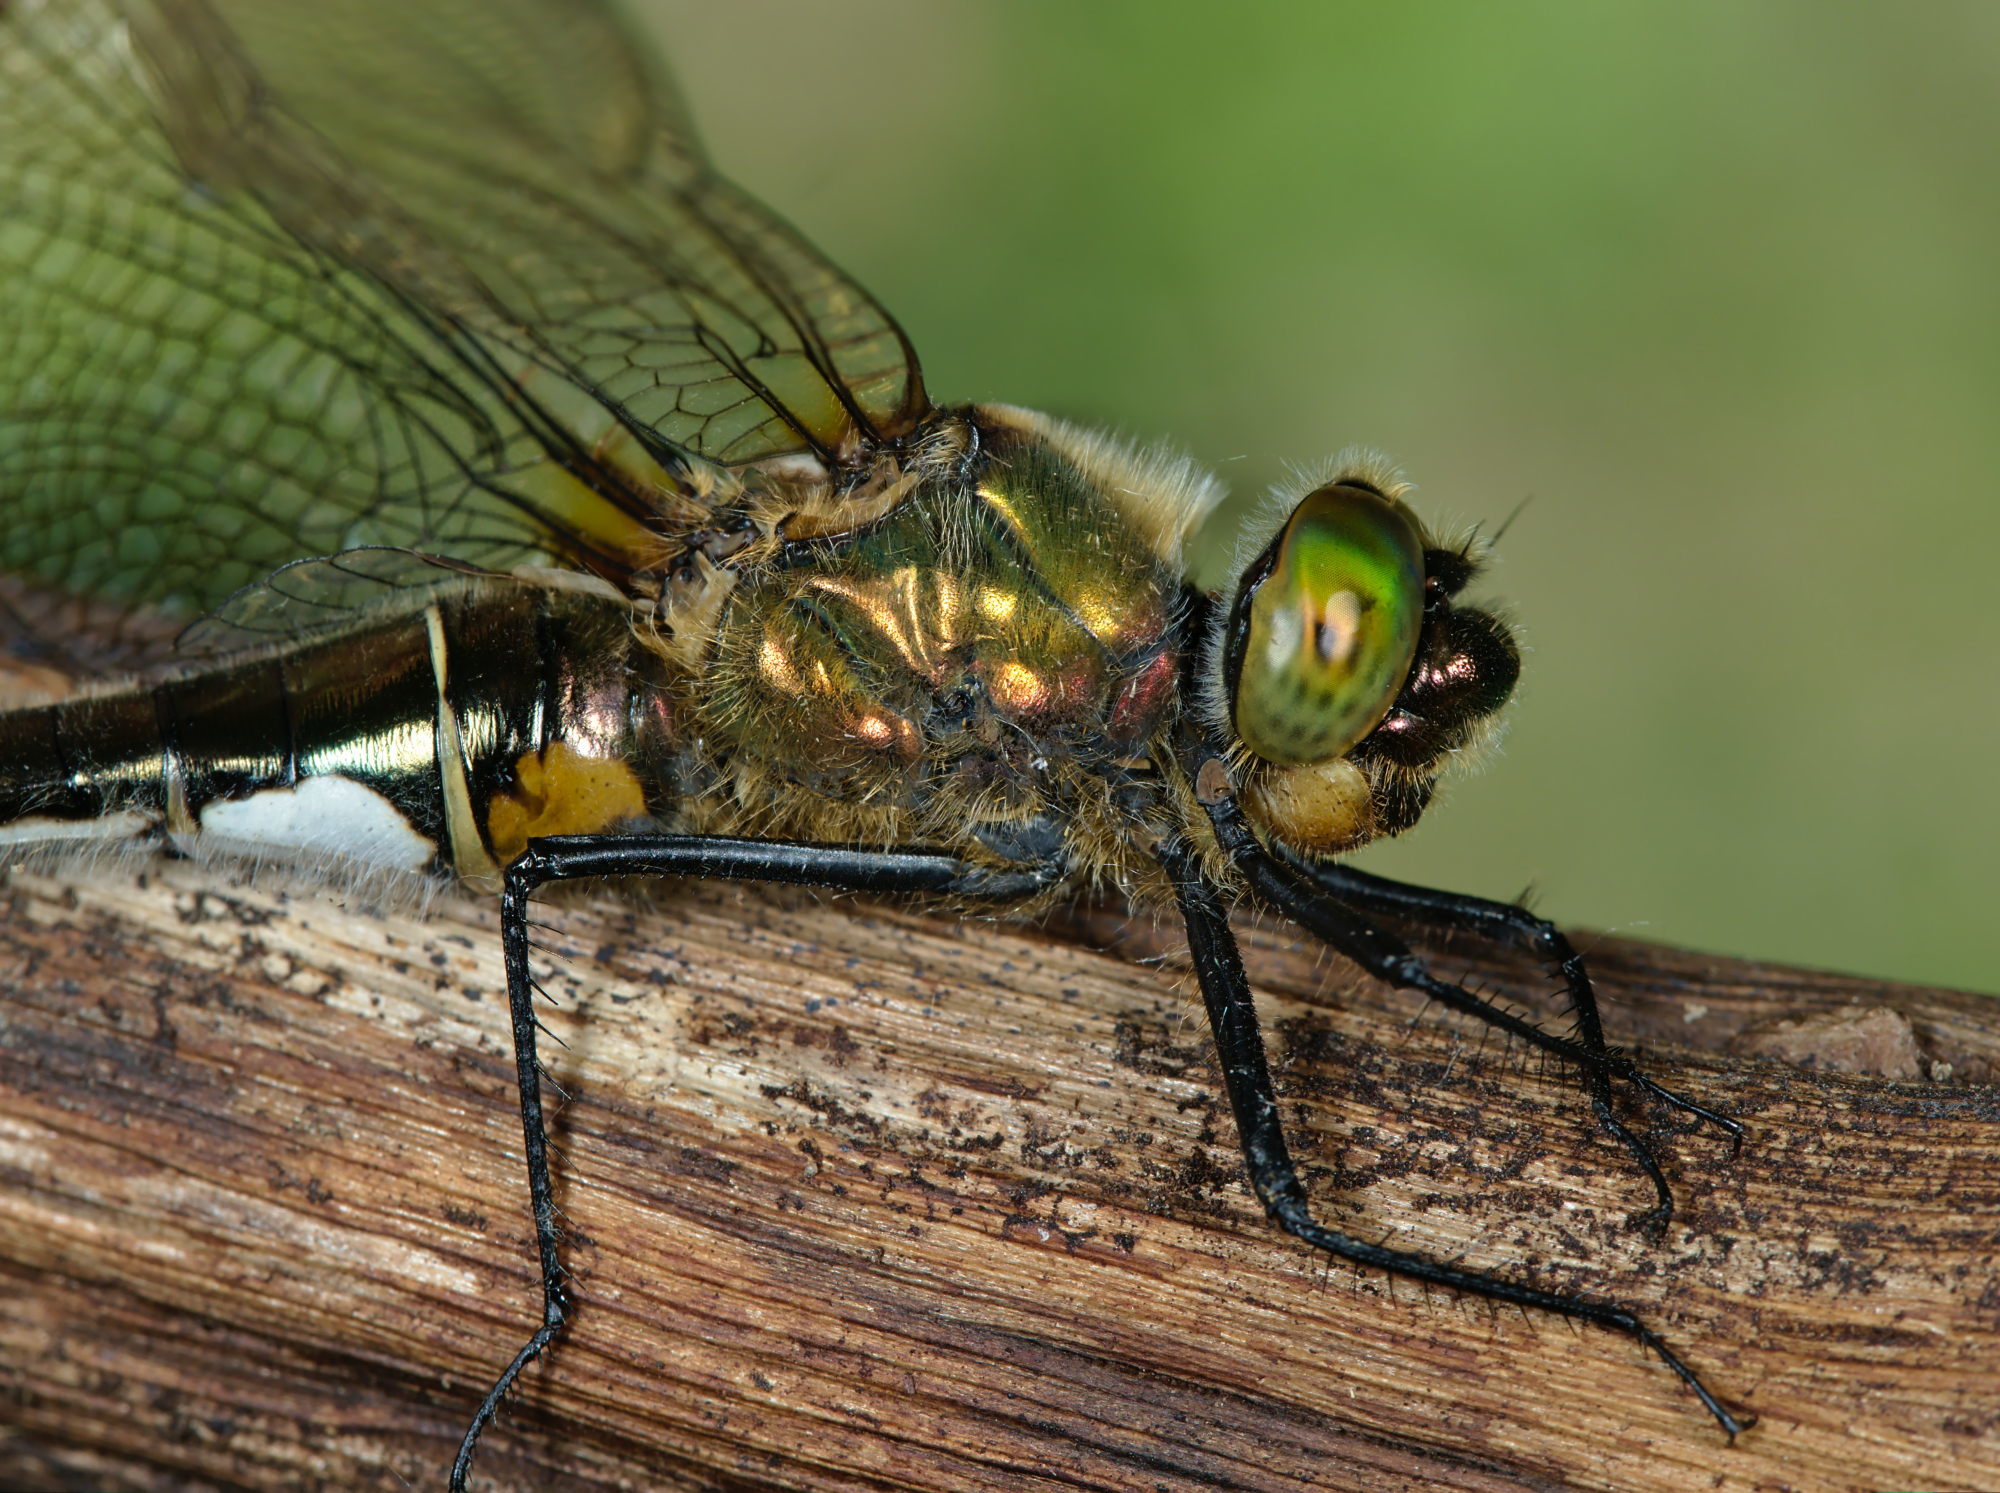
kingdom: Animalia
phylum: Arthropoda
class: Insecta
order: Odonata
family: Corduliidae
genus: Cordulia
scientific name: Cordulia aenea
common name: Downy emerald
